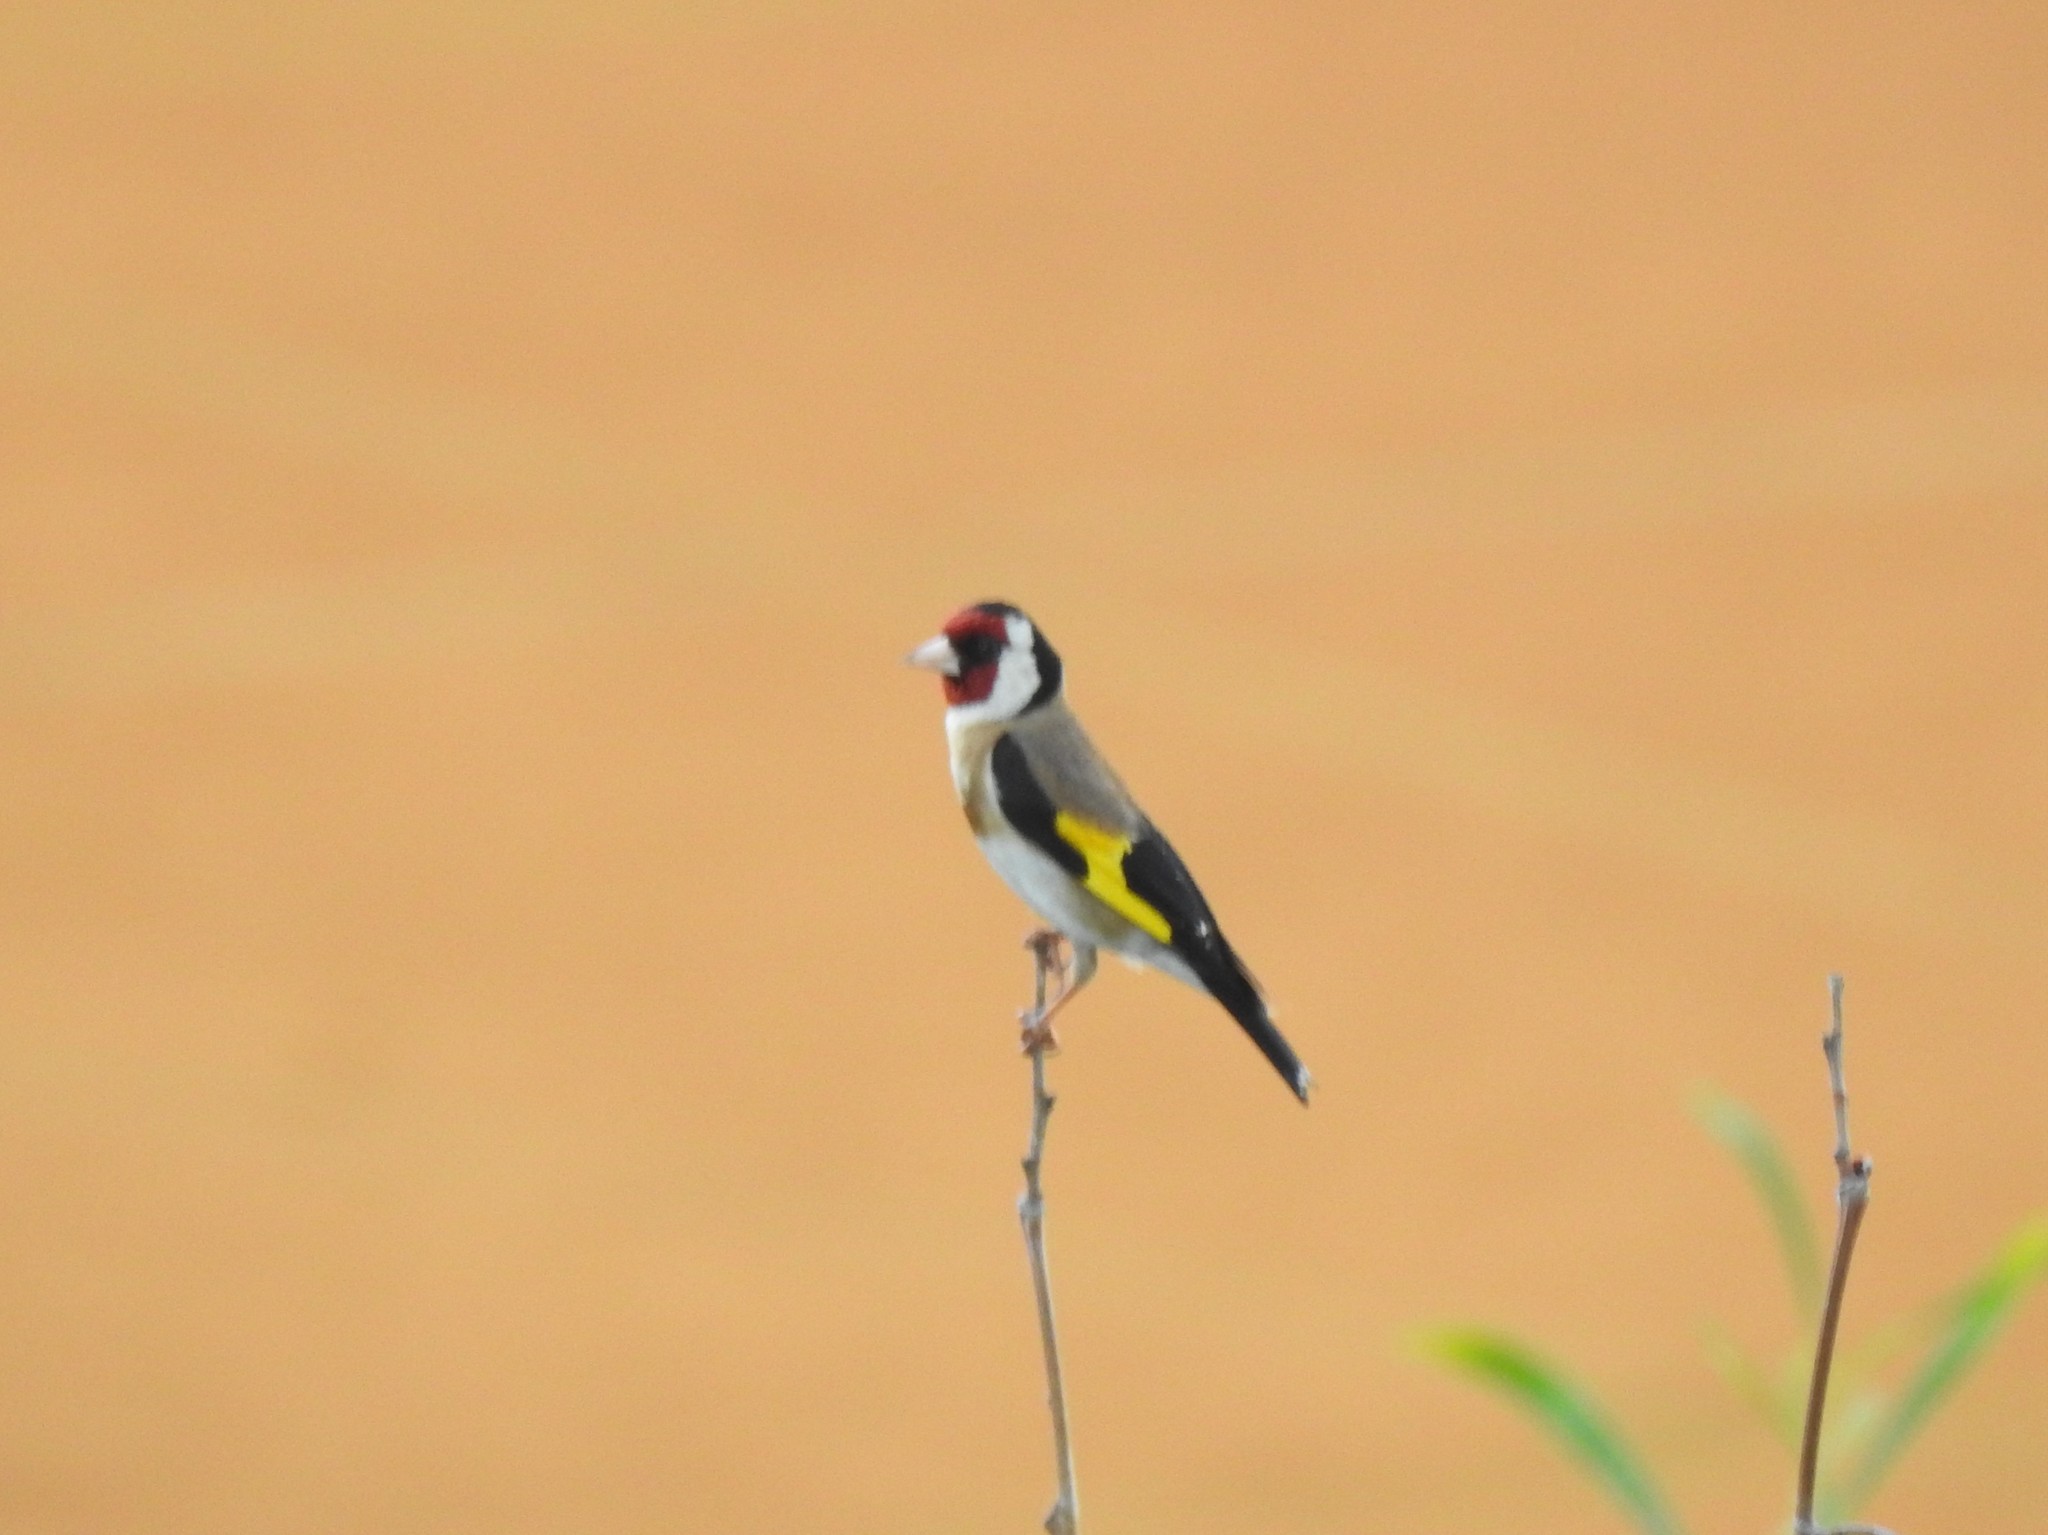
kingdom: Animalia
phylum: Chordata
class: Aves
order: Passeriformes
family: Fringillidae
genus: Carduelis
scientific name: Carduelis carduelis
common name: European goldfinch
